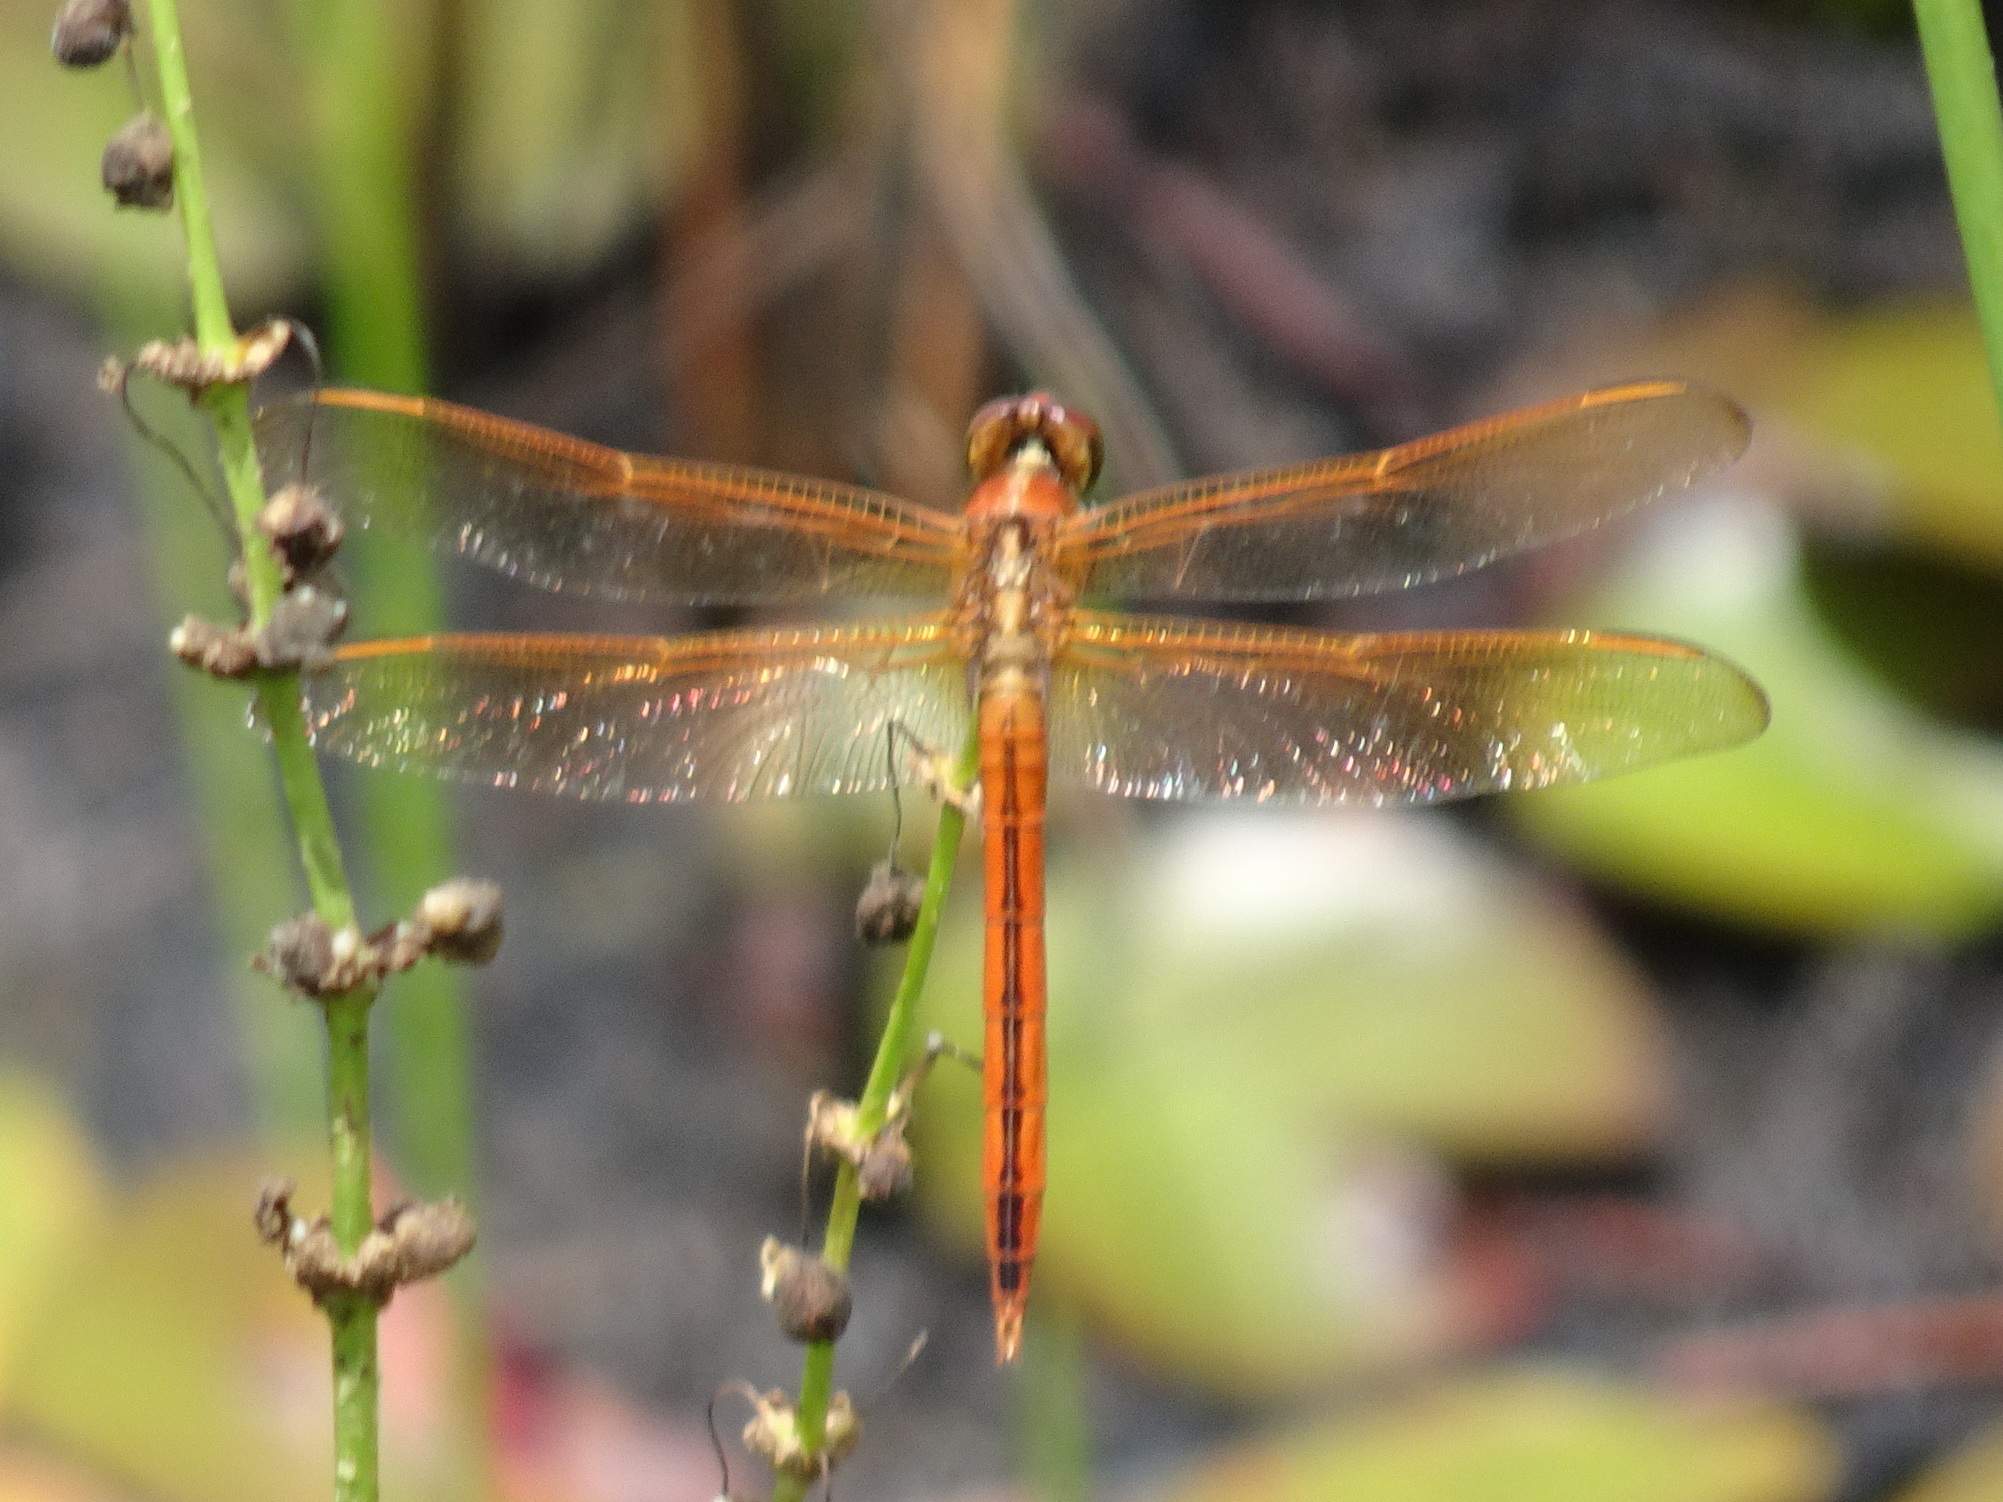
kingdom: Animalia
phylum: Arthropoda
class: Insecta
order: Odonata
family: Libellulidae
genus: Libellula
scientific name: Libellula needhami
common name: Needham's skimmer
